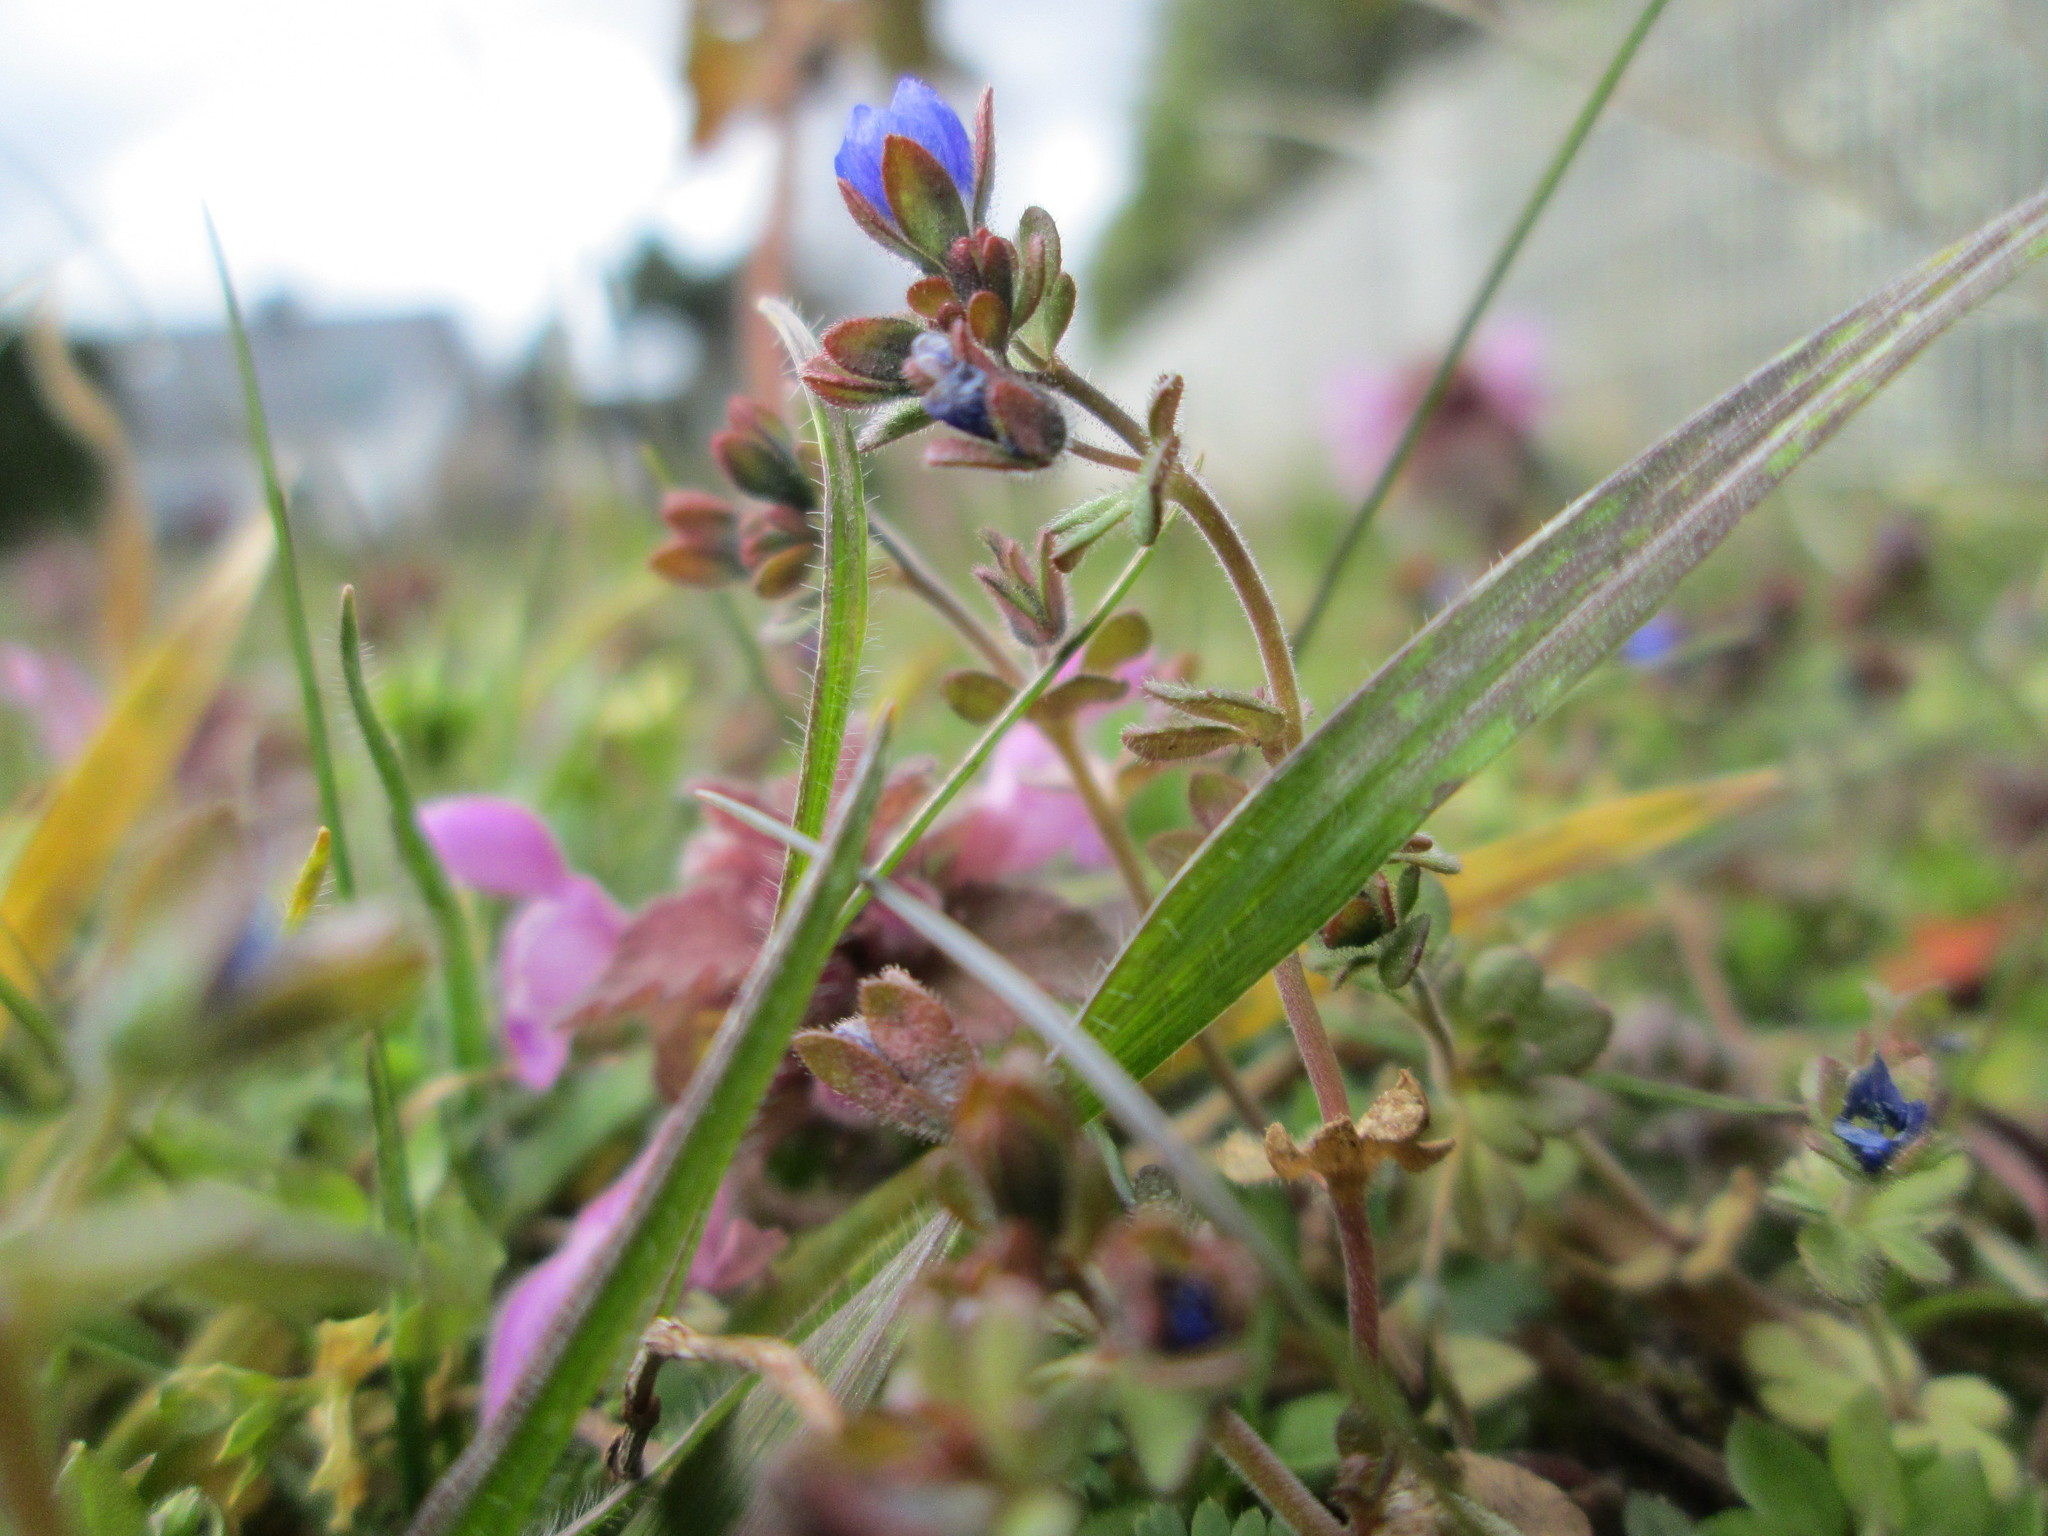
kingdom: Plantae
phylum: Tracheophyta
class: Magnoliopsida
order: Lamiales
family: Plantaginaceae
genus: Veronica
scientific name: Veronica triphyllos
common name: Fingered speedwell
